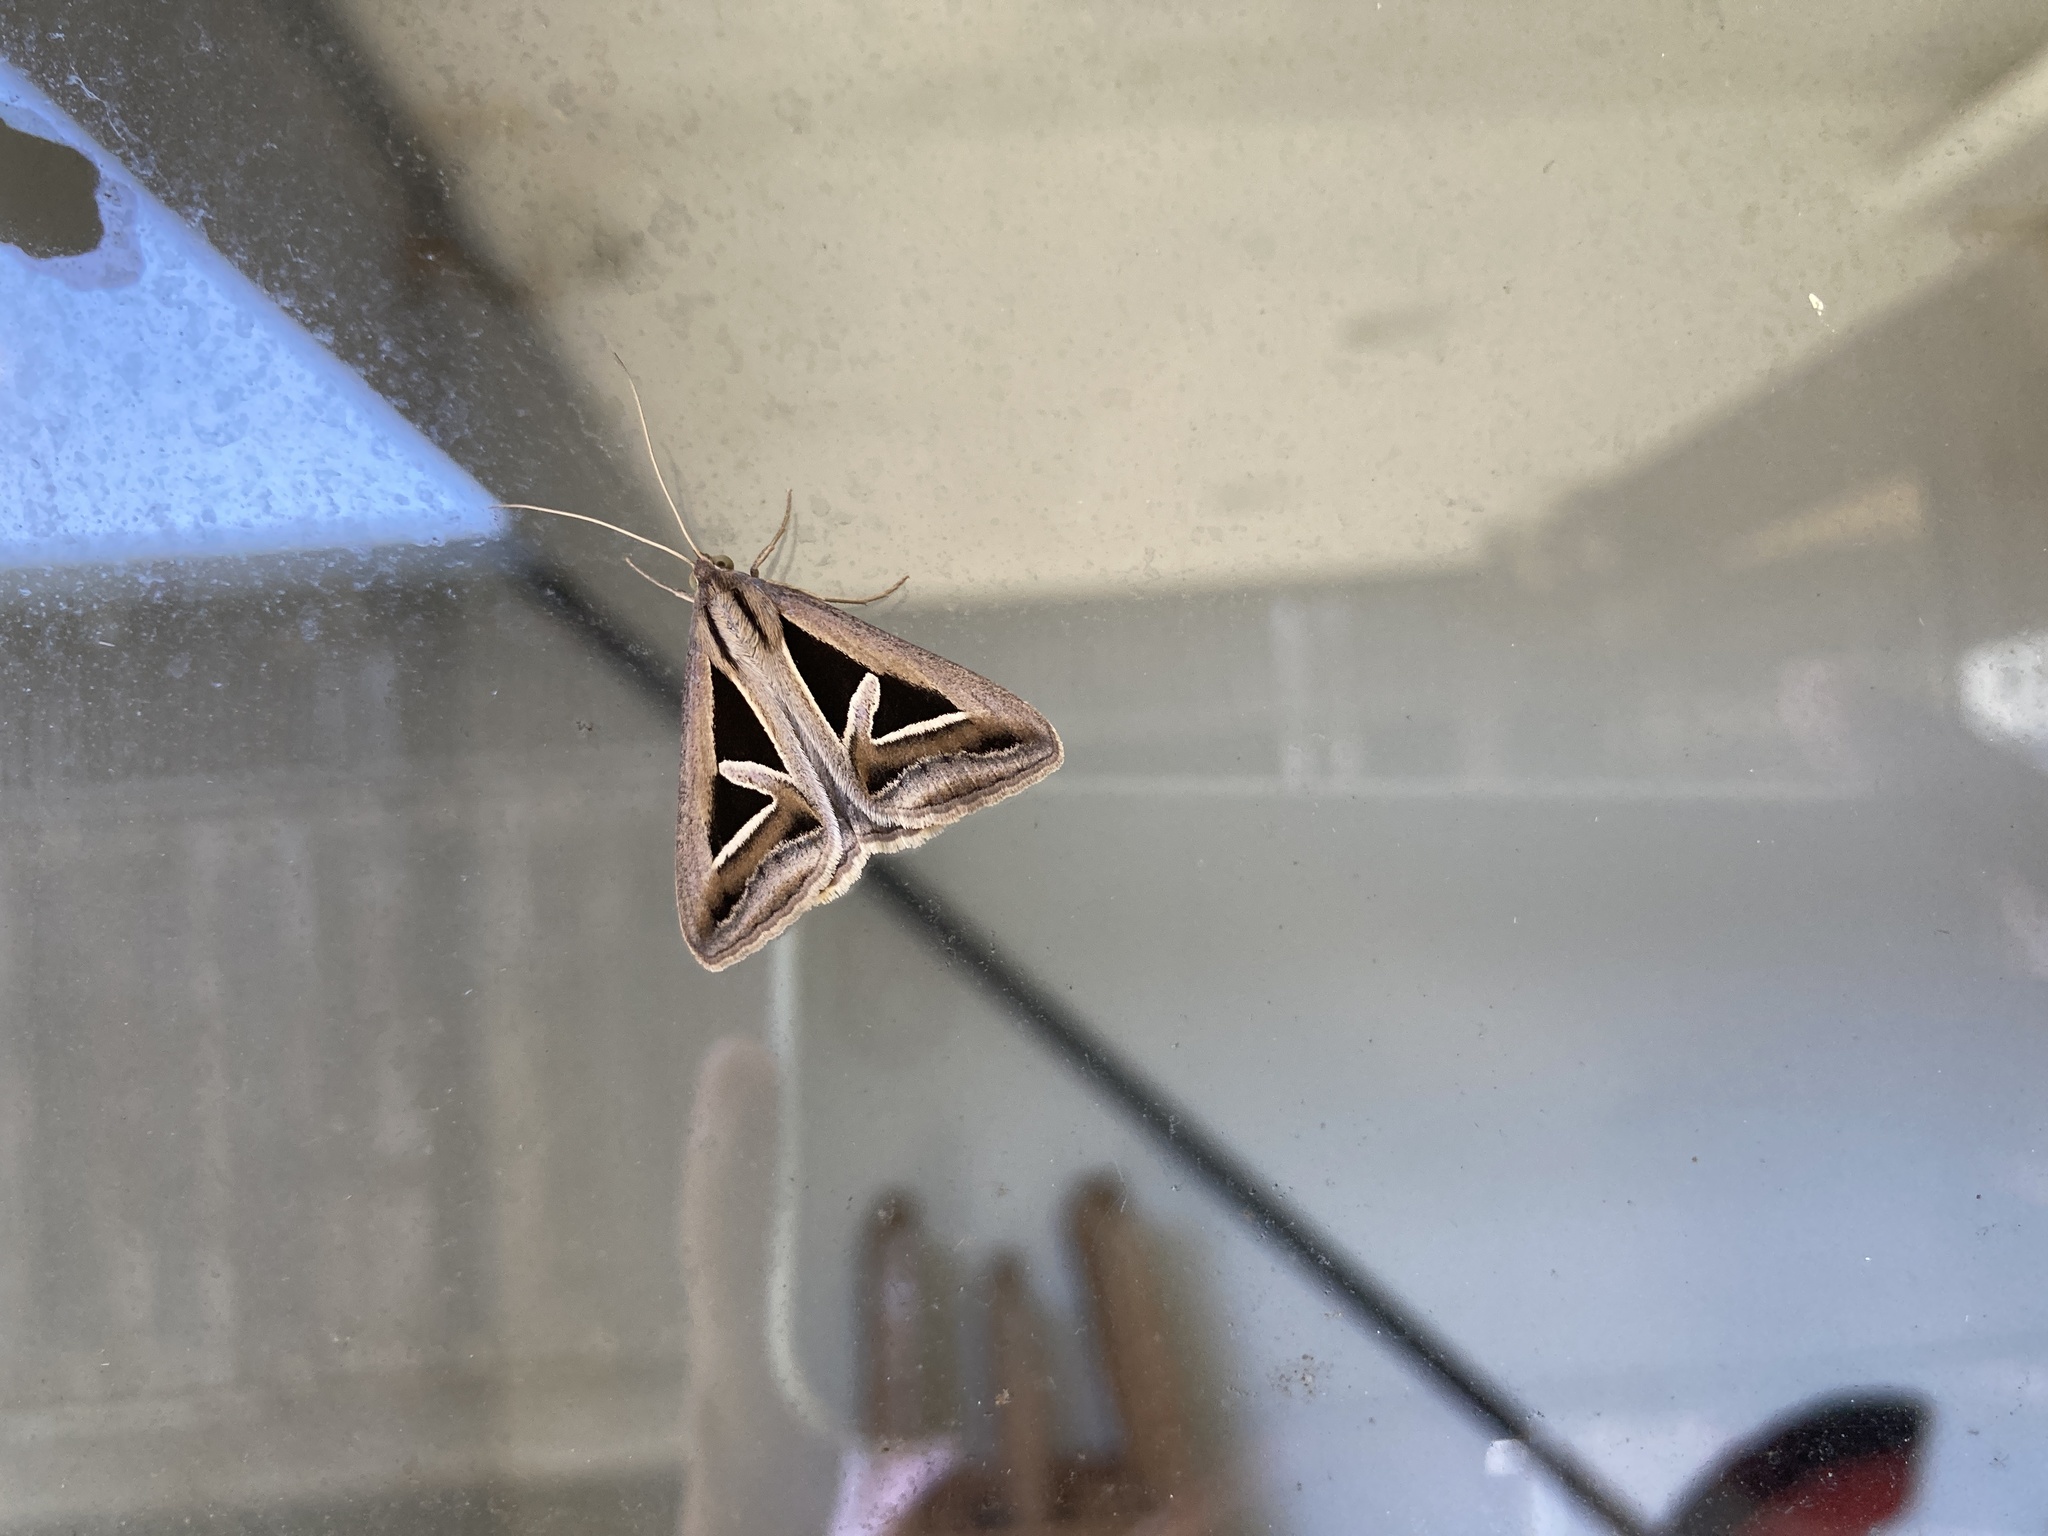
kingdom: Animalia
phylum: Arthropoda
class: Insecta
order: Lepidoptera
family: Erebidae
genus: Trigonodes
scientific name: Trigonodes hyppasia
